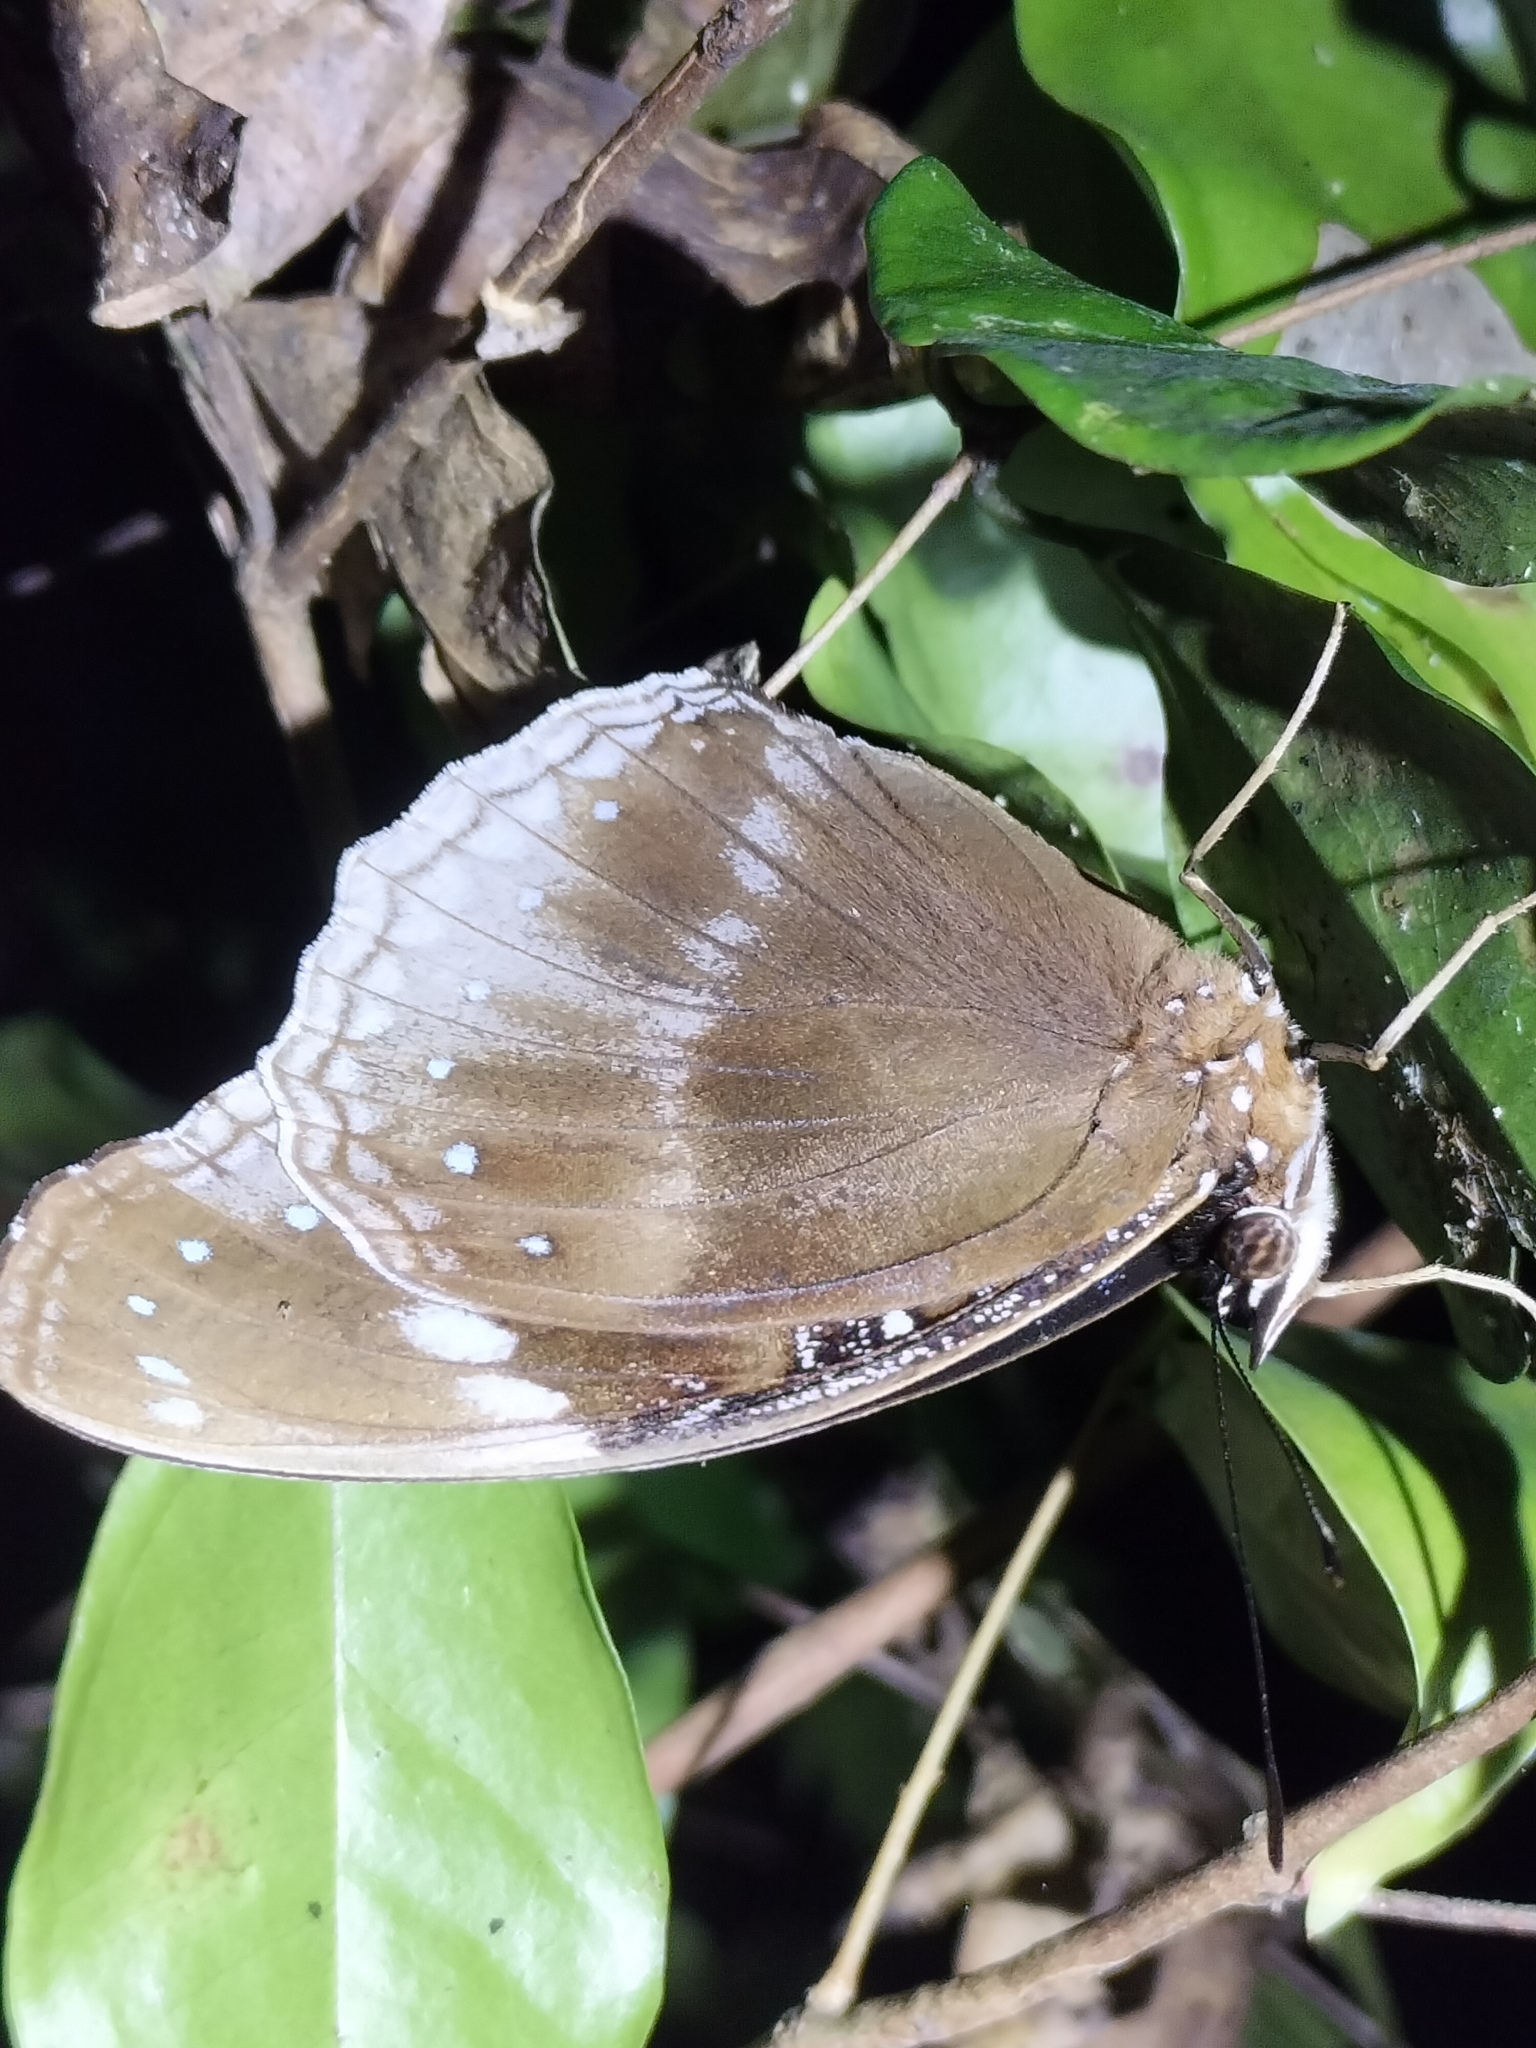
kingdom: Animalia
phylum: Arthropoda
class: Insecta
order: Lepidoptera
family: Nymphalidae
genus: Hypolimnas
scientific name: Hypolimnas alimena
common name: Blue-banded eggfly
